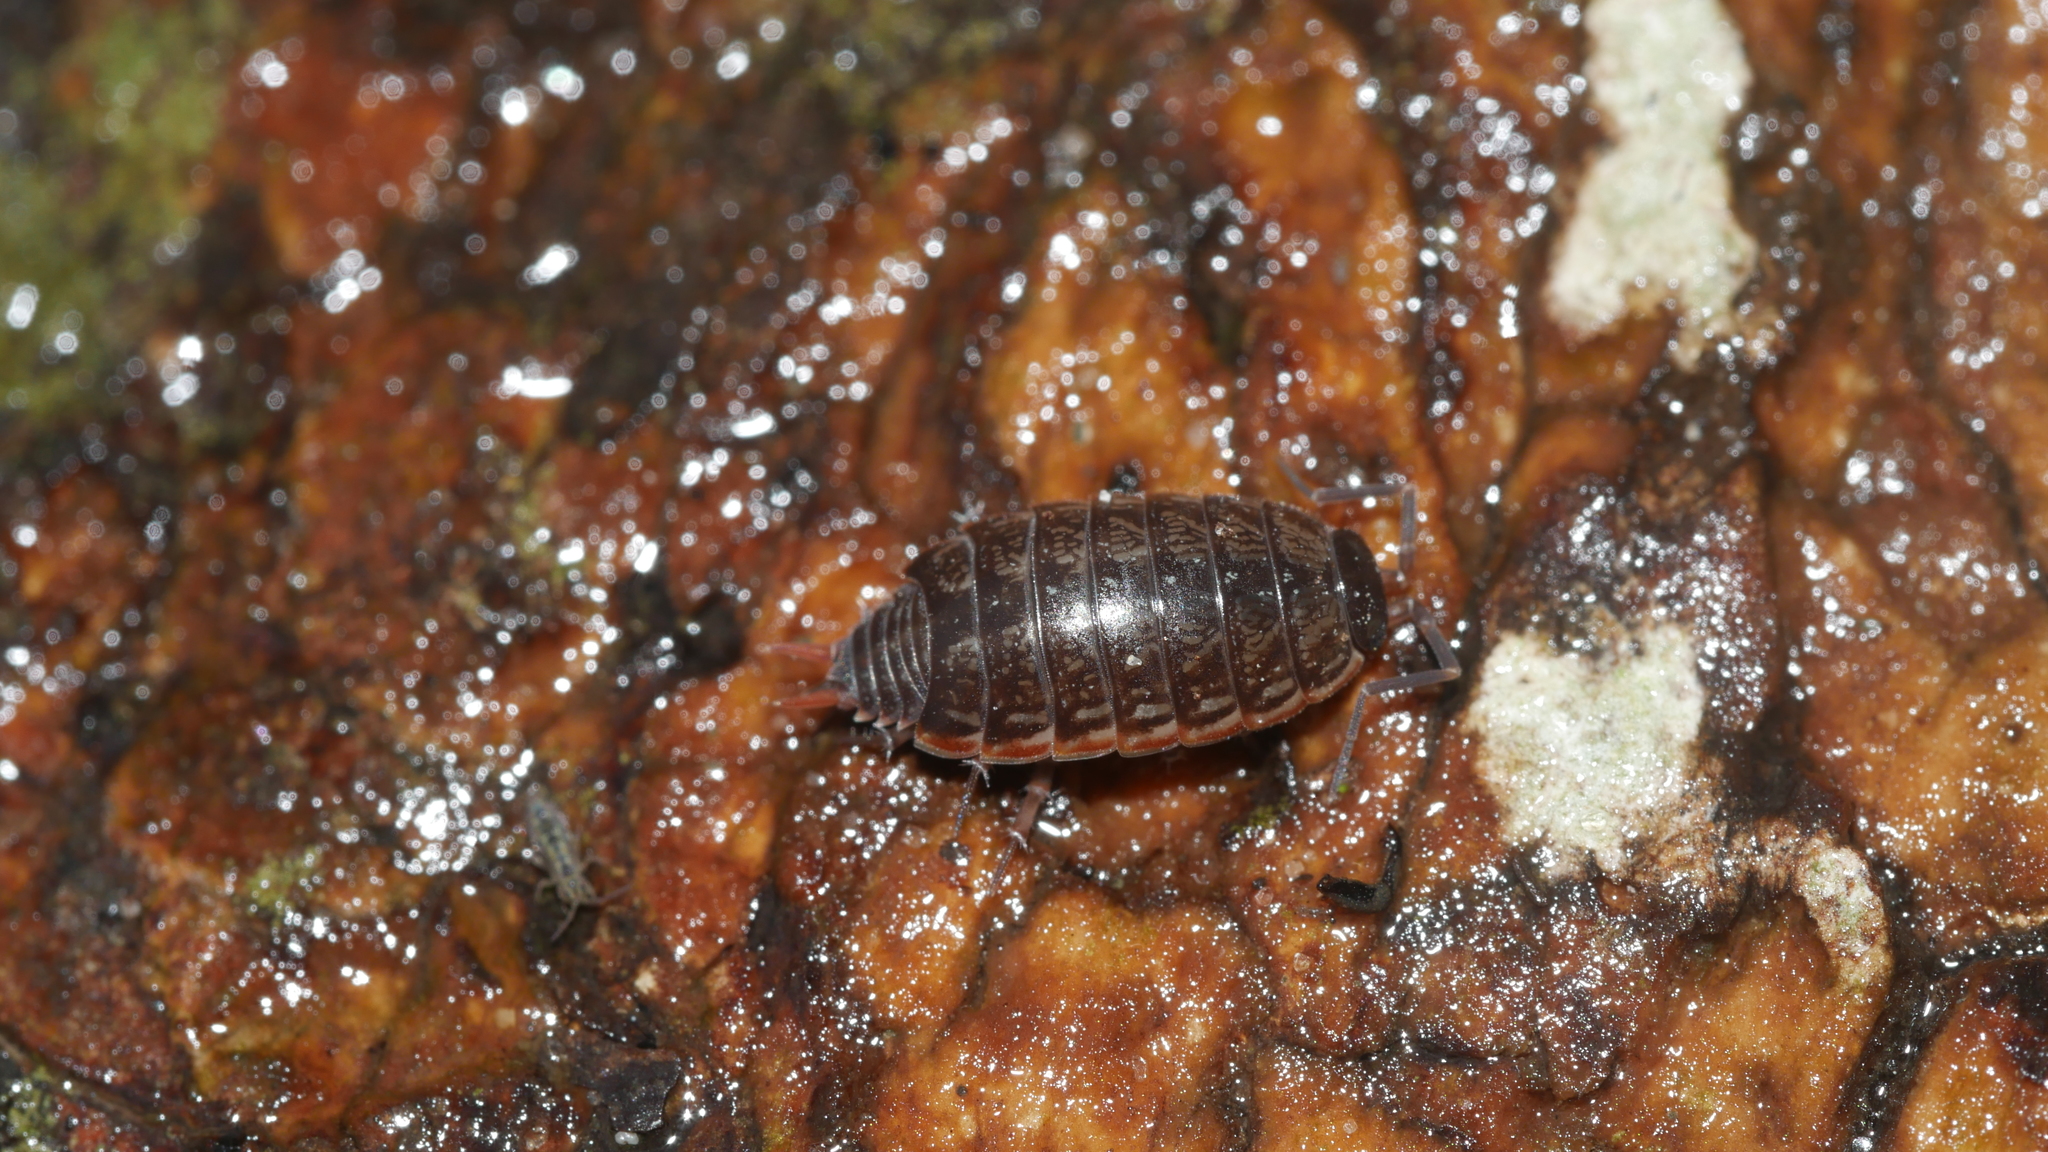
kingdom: Animalia
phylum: Arthropoda
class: Malacostraca
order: Isopoda
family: Philosciidae
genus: Philoscia
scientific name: Philoscia muscorum
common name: Common striped woodlouse
